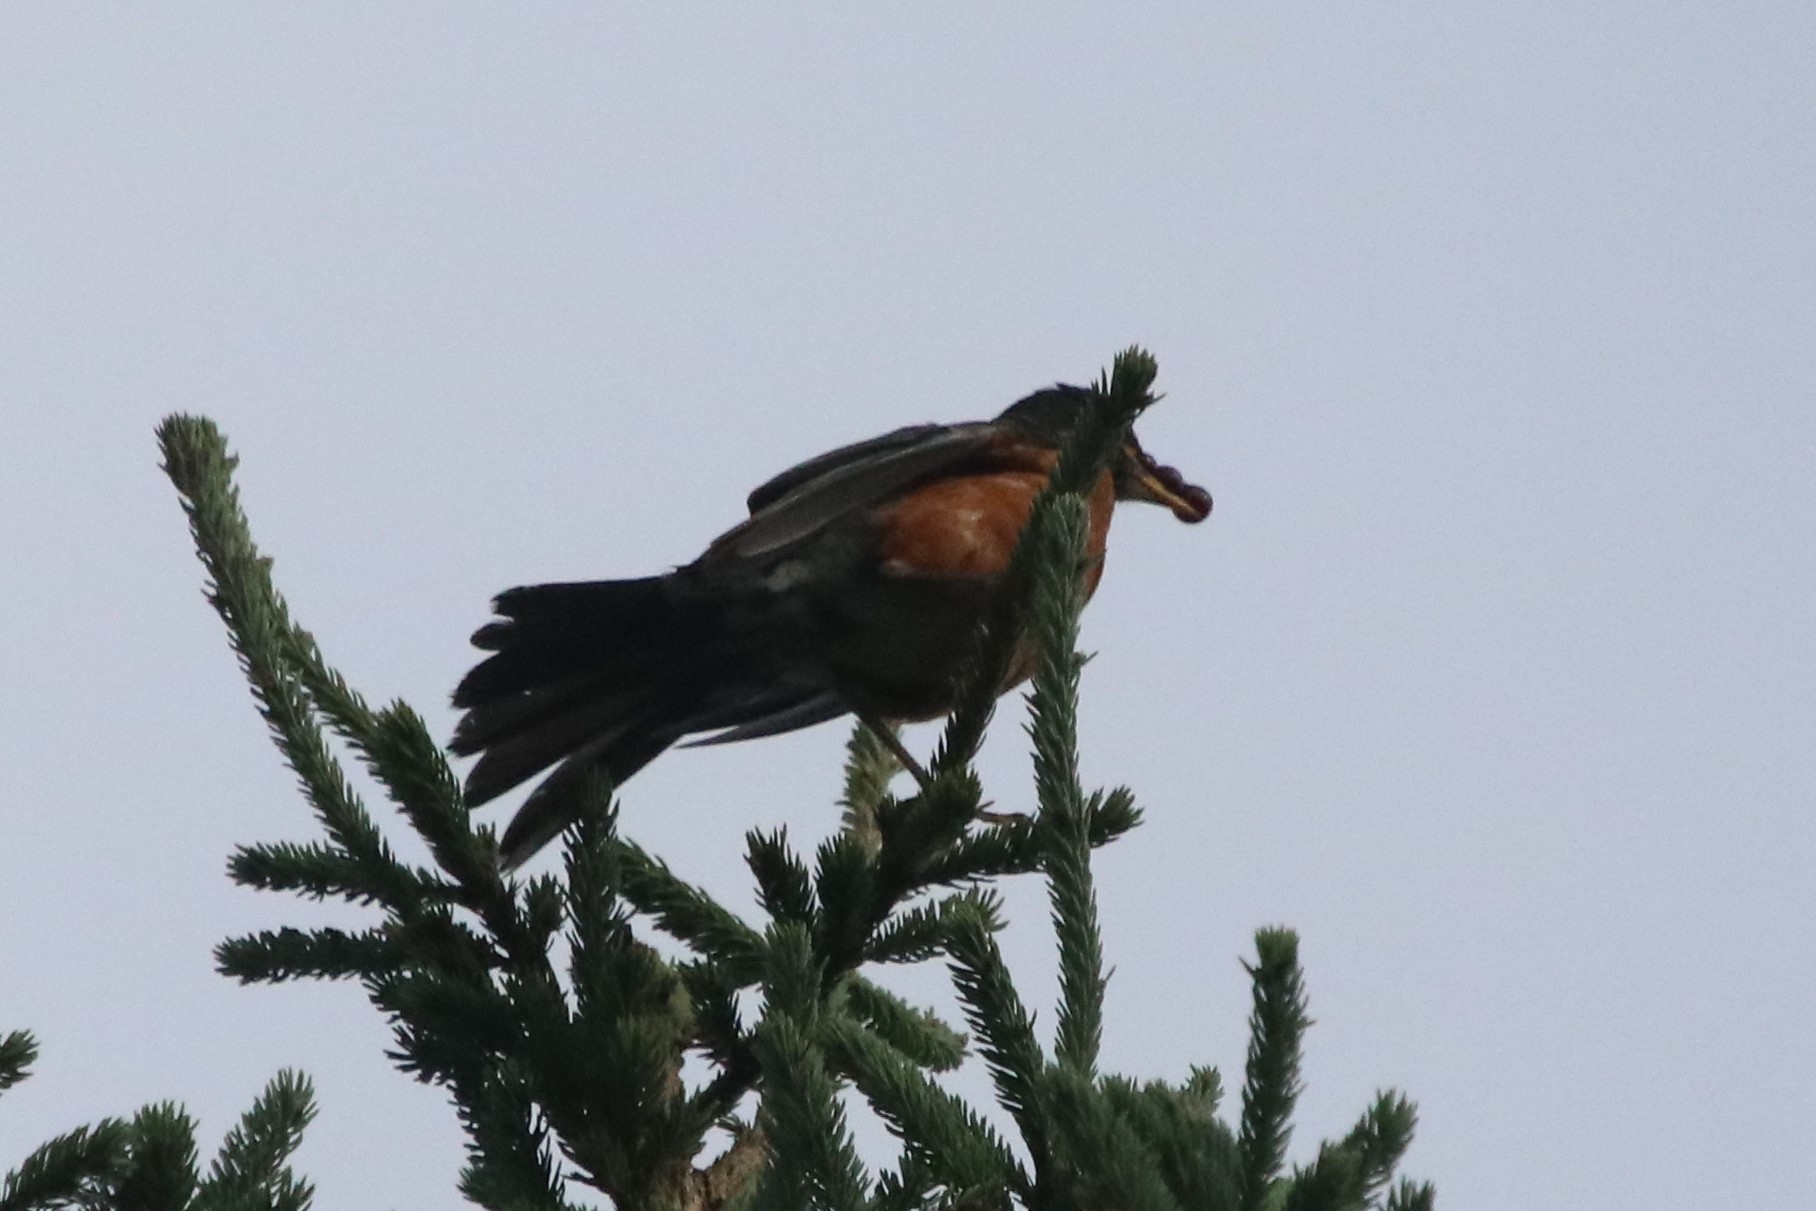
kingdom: Animalia
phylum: Chordata
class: Aves
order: Passeriformes
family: Turdidae
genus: Turdus
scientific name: Turdus migratorius
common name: American robin
